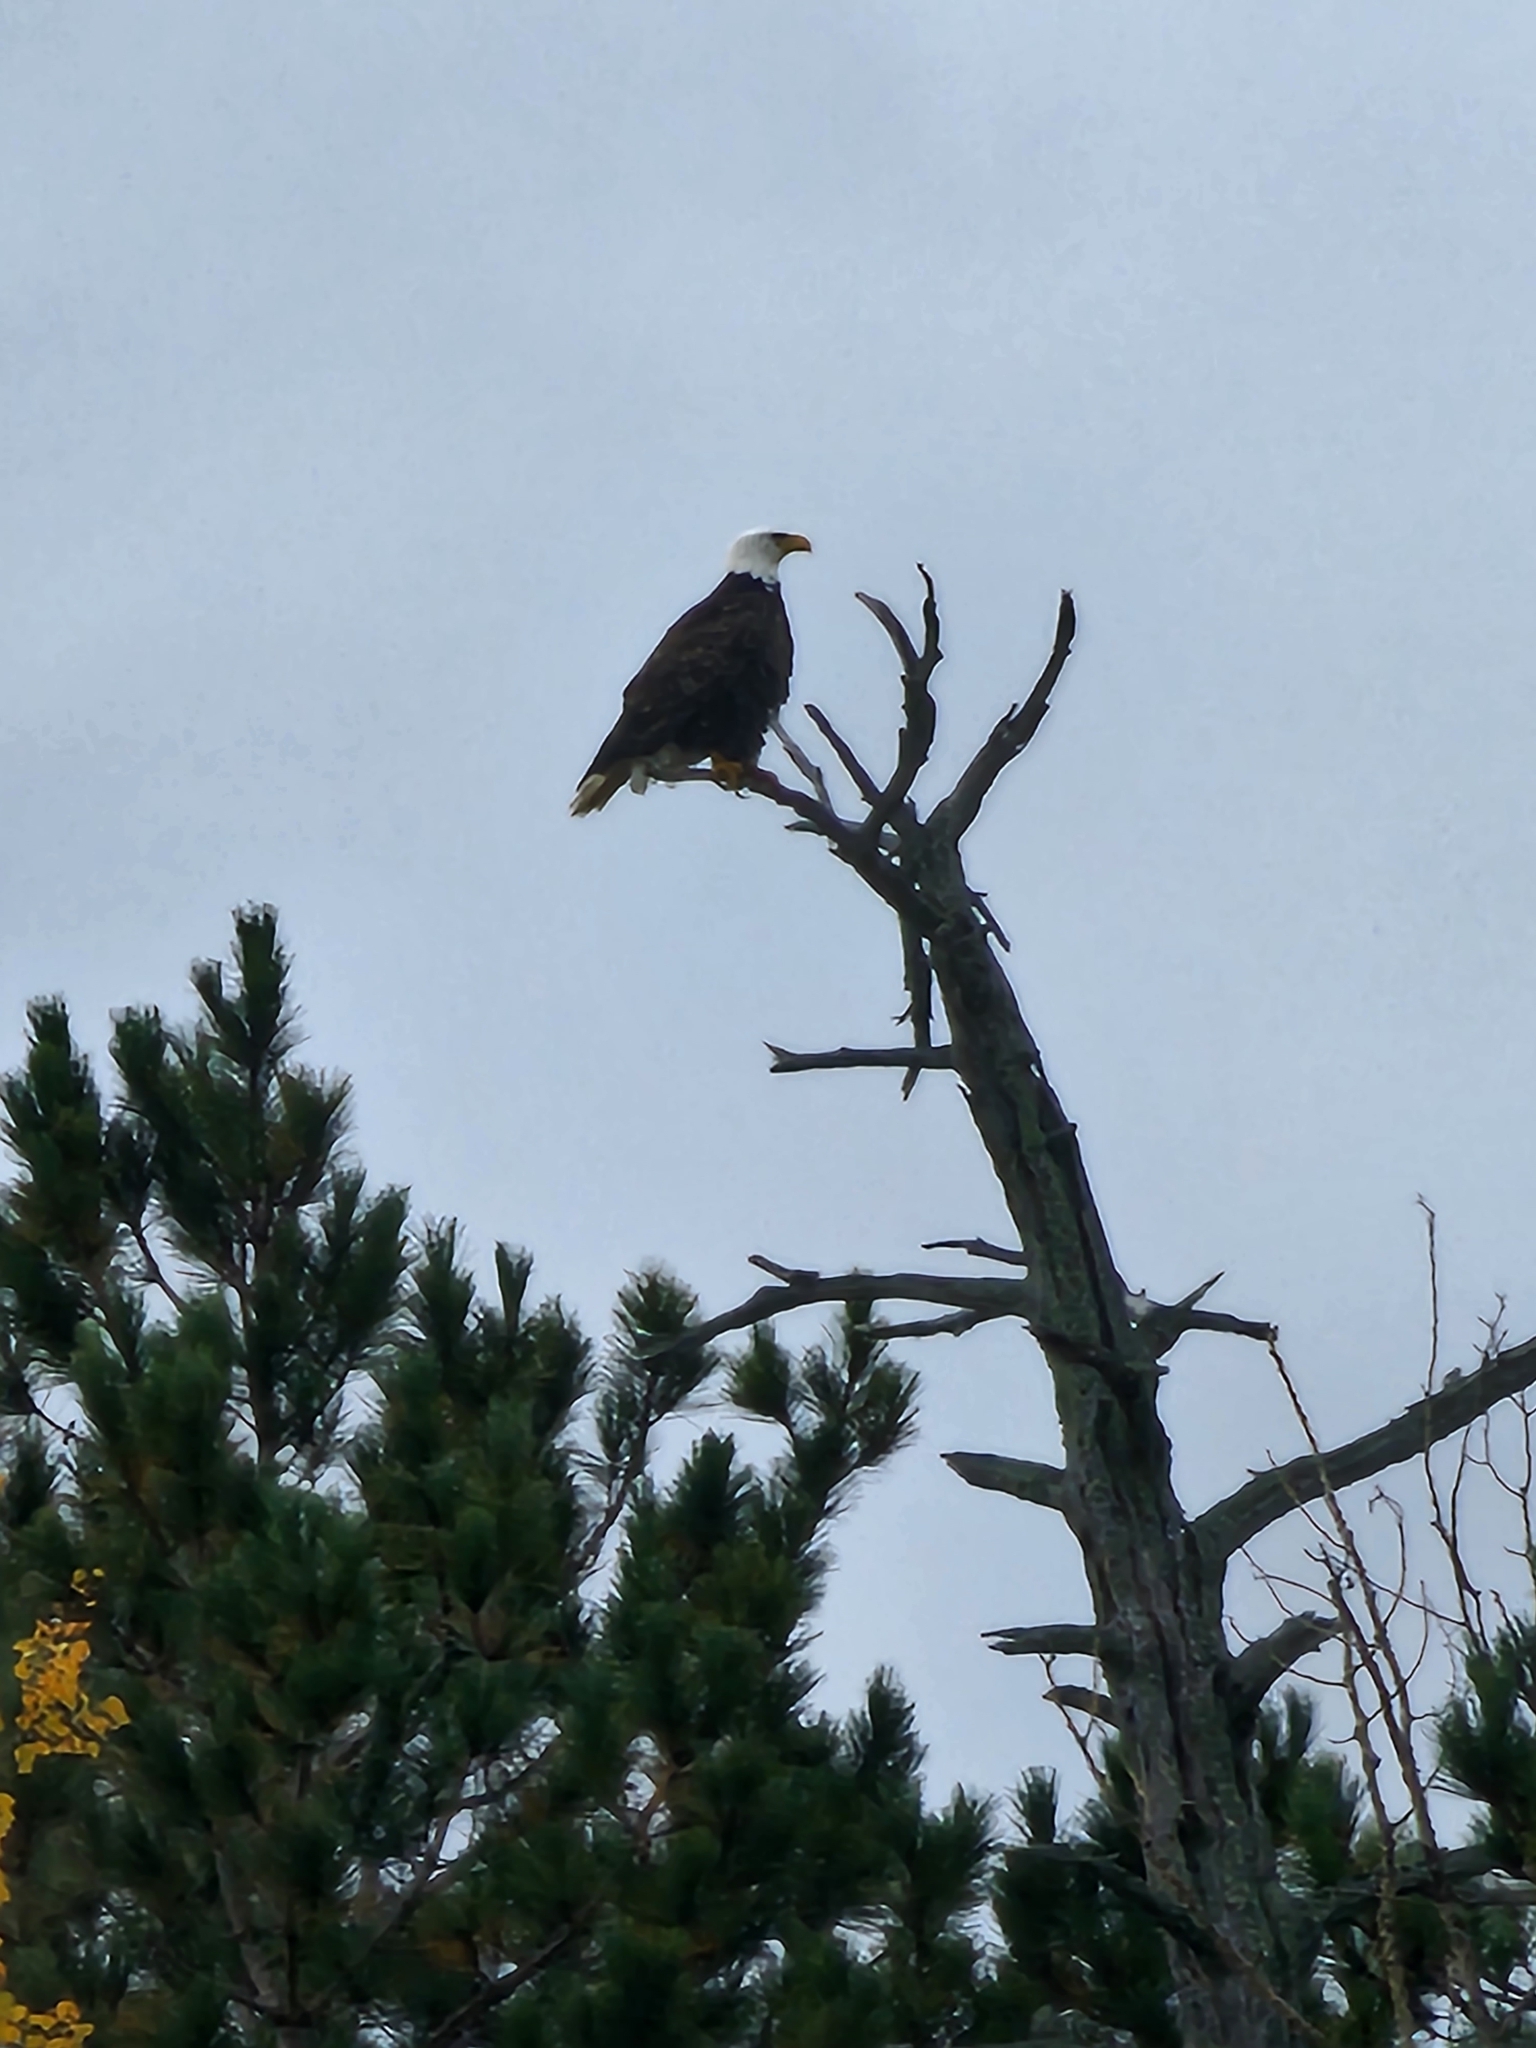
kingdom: Animalia
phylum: Chordata
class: Aves
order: Accipitriformes
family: Accipitridae
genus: Haliaeetus
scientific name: Haliaeetus leucocephalus
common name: Bald eagle
